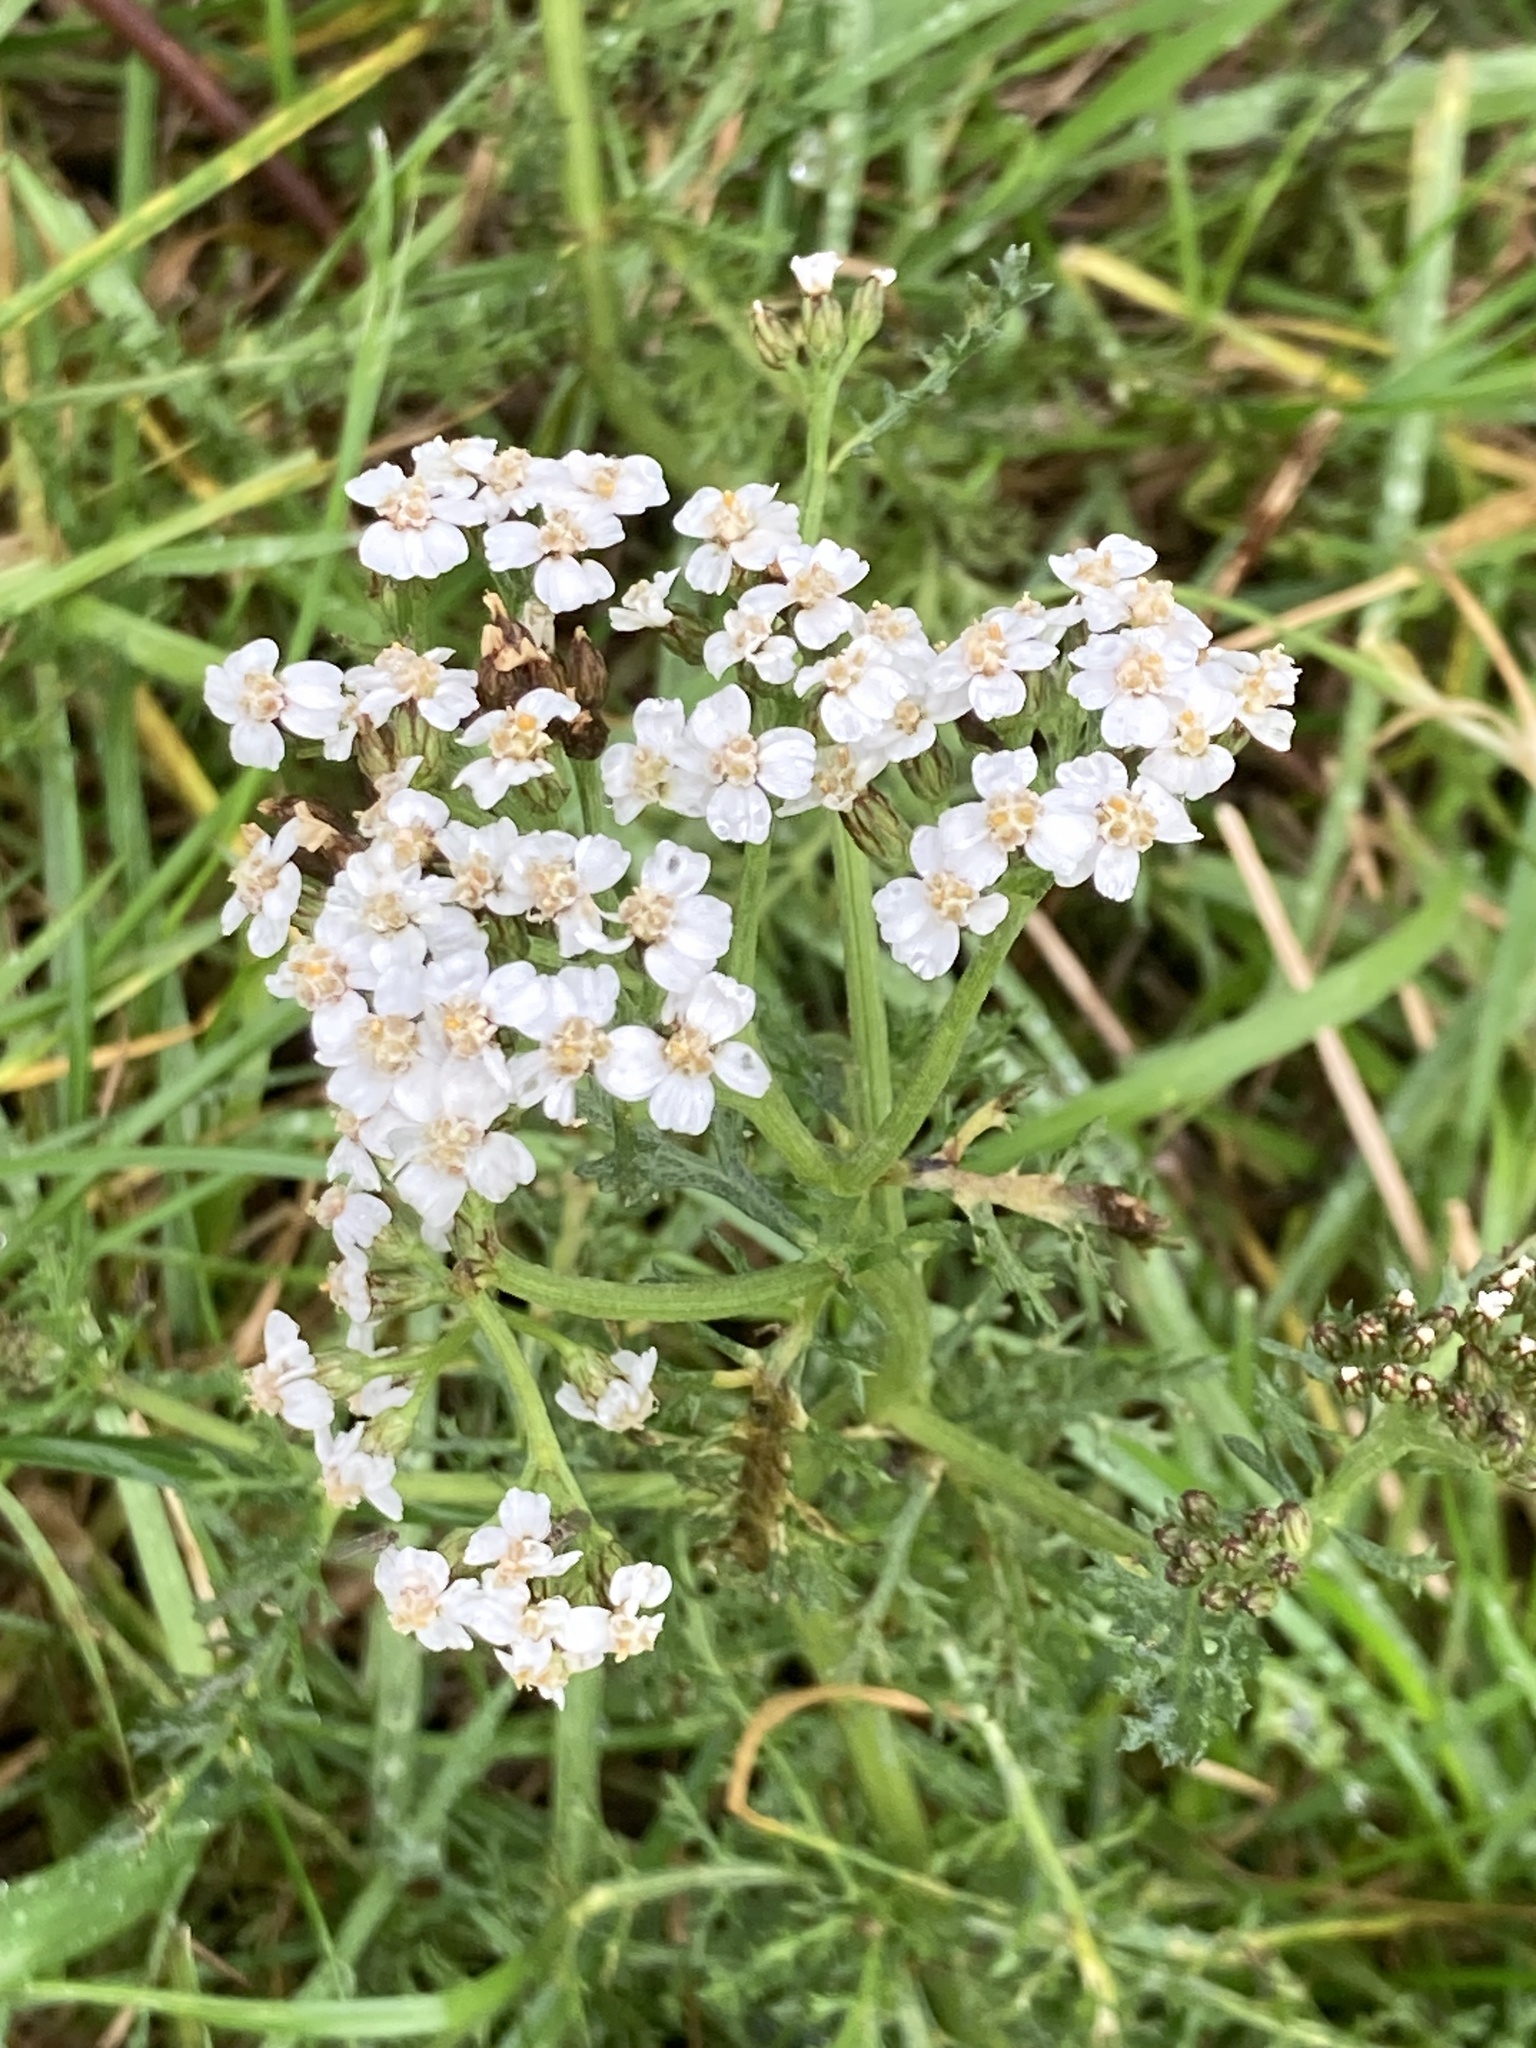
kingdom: Plantae
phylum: Tracheophyta
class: Magnoliopsida
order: Asterales
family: Asteraceae
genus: Achillea
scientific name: Achillea millefolium
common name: Yarrow
